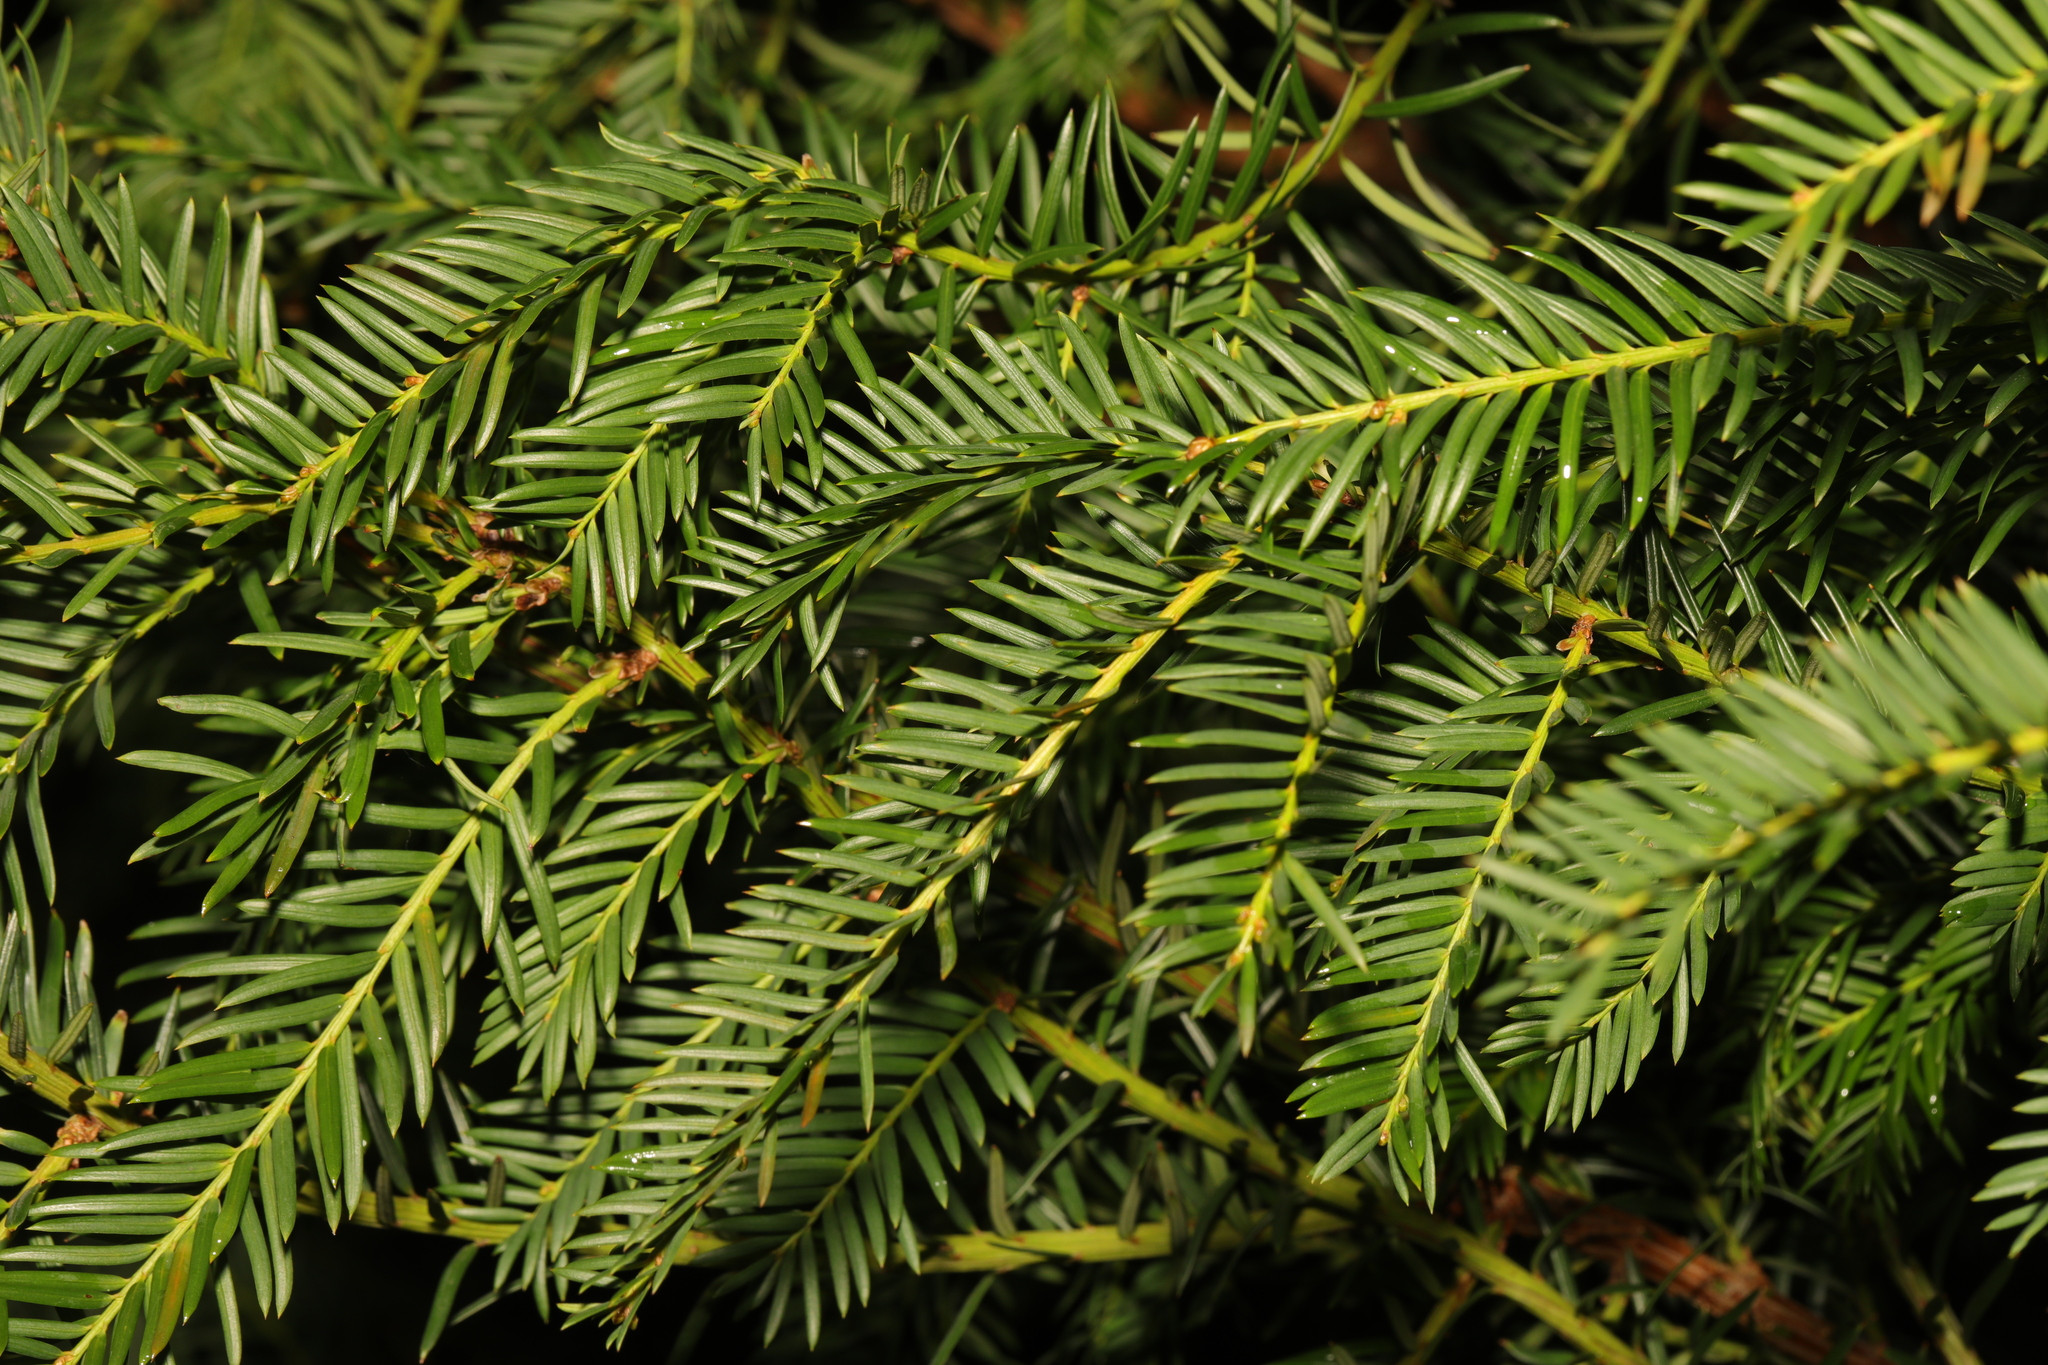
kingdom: Plantae
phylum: Tracheophyta
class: Pinopsida
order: Pinales
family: Taxaceae
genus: Taxus
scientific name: Taxus baccata
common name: Yew
